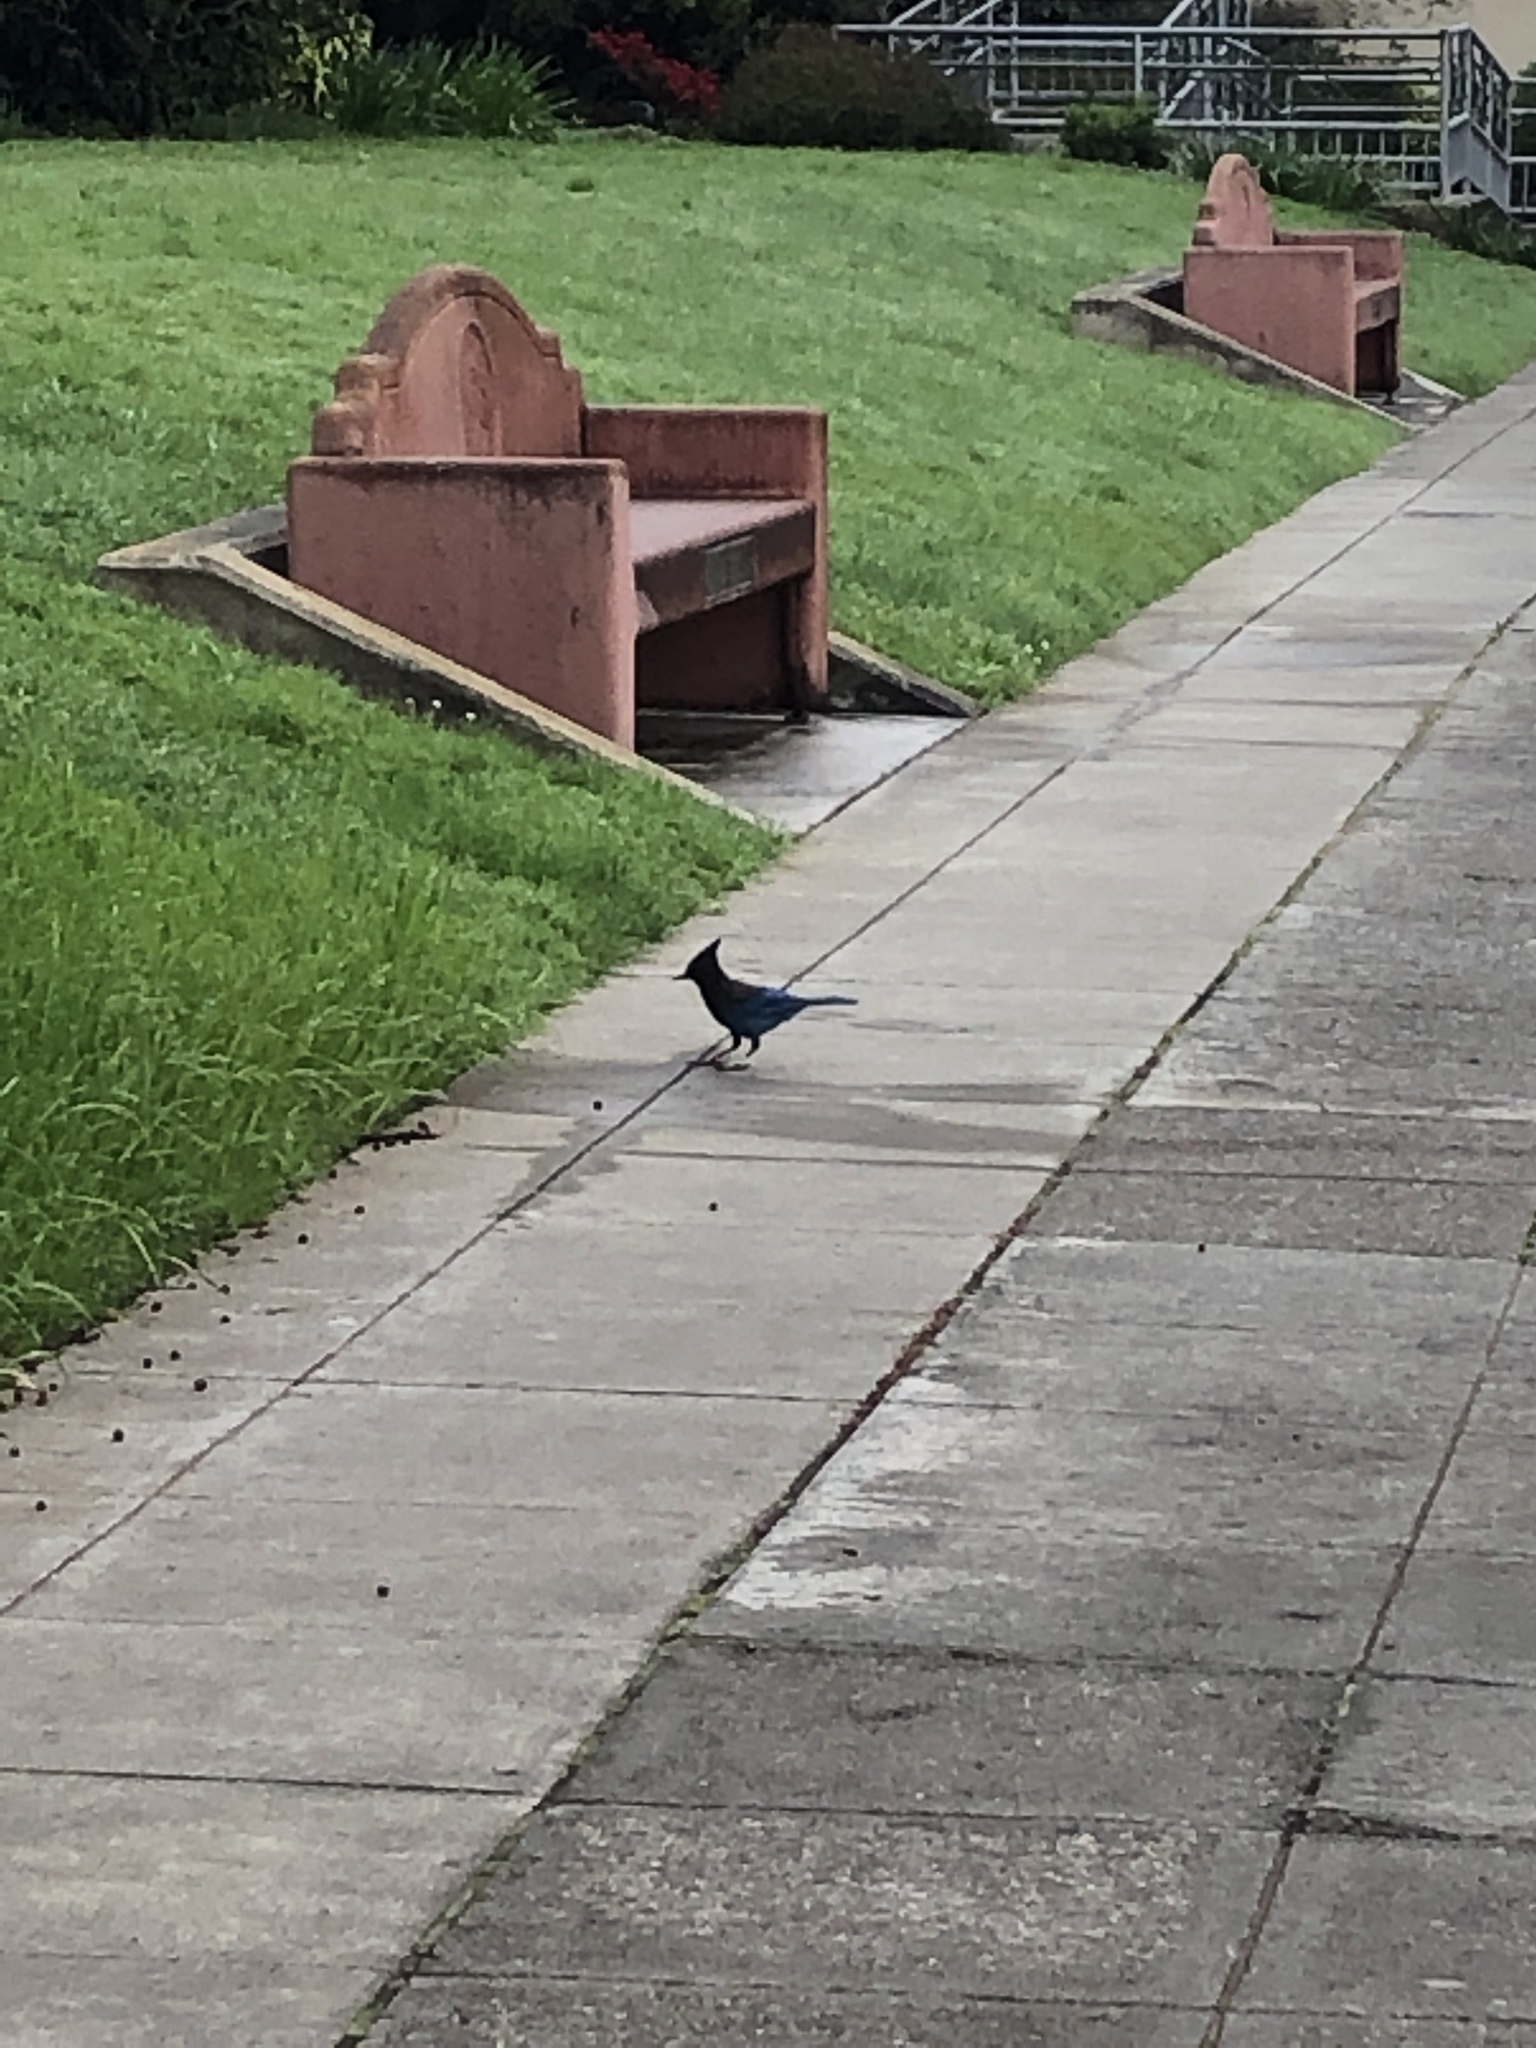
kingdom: Animalia
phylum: Chordata
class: Aves
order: Passeriformes
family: Corvidae
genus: Cyanocitta
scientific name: Cyanocitta stelleri
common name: Steller's jay
